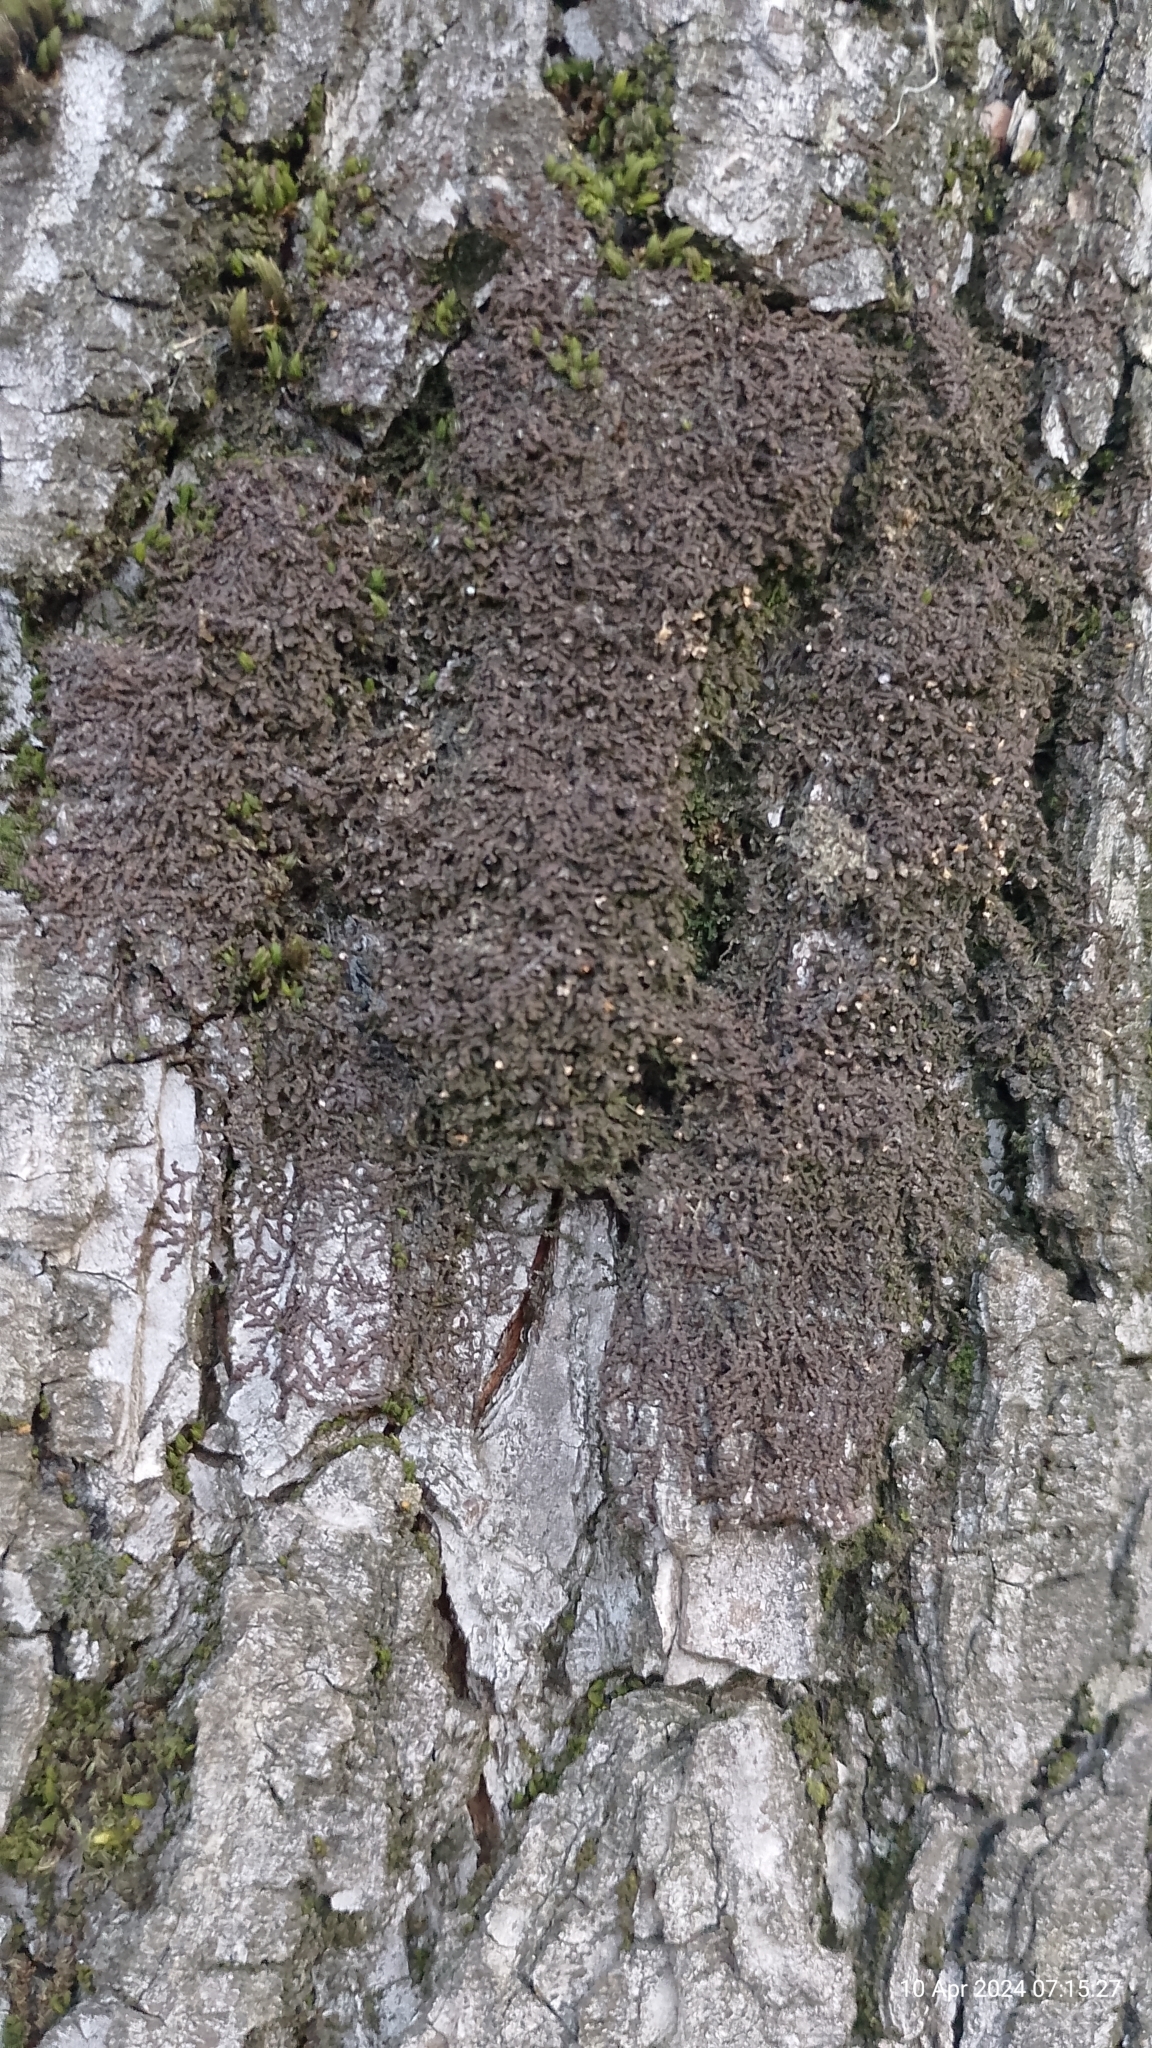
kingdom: Plantae
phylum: Marchantiophyta
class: Jungermanniopsida
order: Porellales
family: Frullaniaceae
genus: Frullania
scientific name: Frullania dilatata
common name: Dilated scalewort
